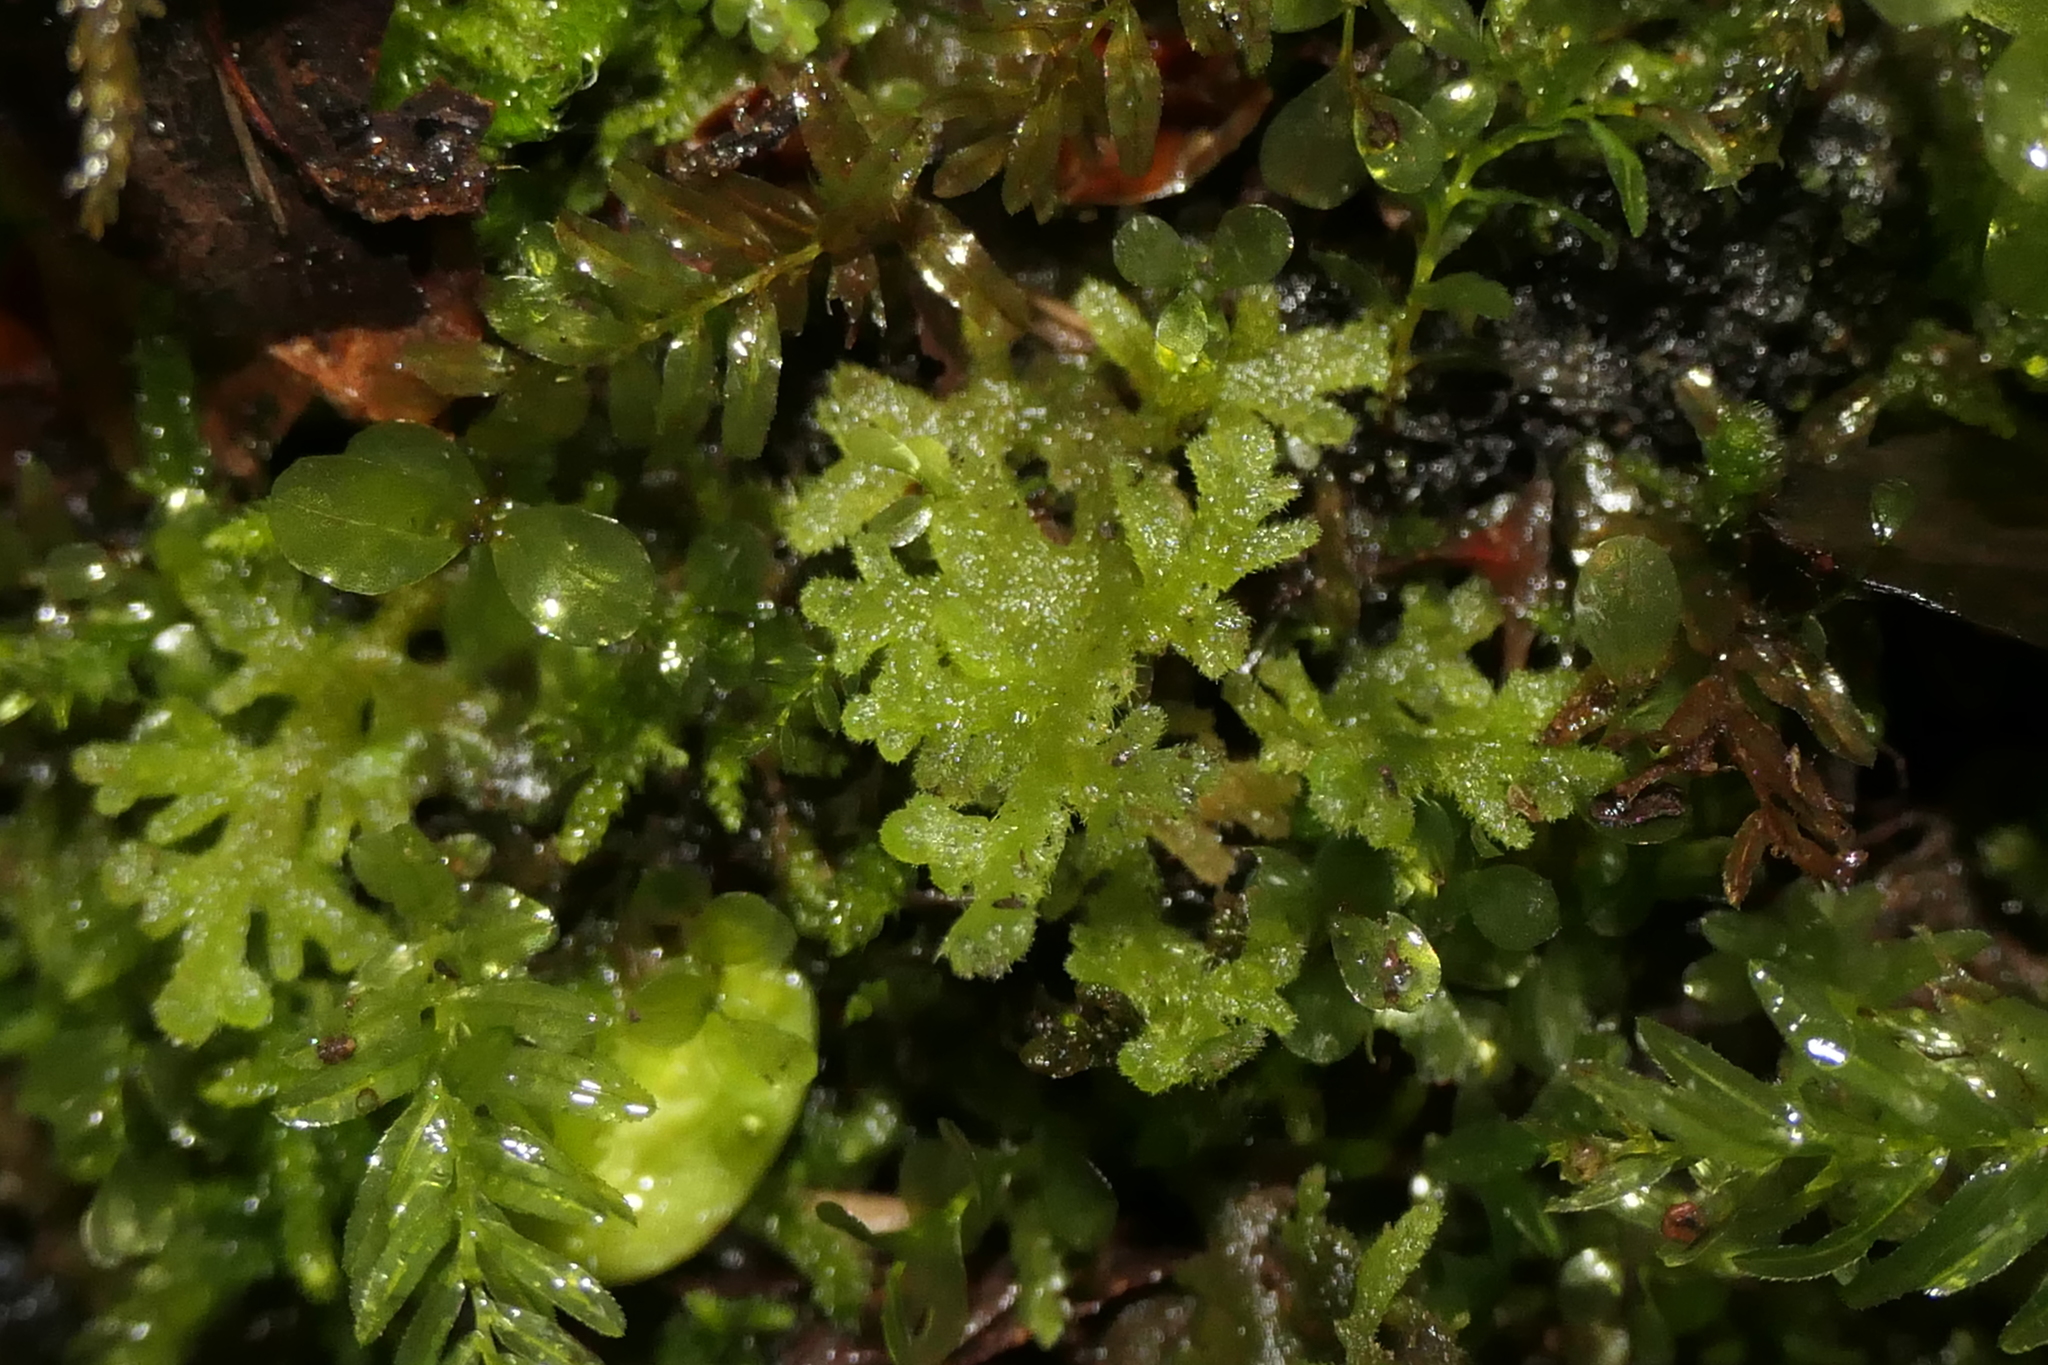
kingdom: Plantae
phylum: Marchantiophyta
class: Jungermanniopsida
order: Jungermanniales
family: Trichocoleaceae
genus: Trichocolea
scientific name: Trichocolea tomentella
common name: Woolly liverwort
